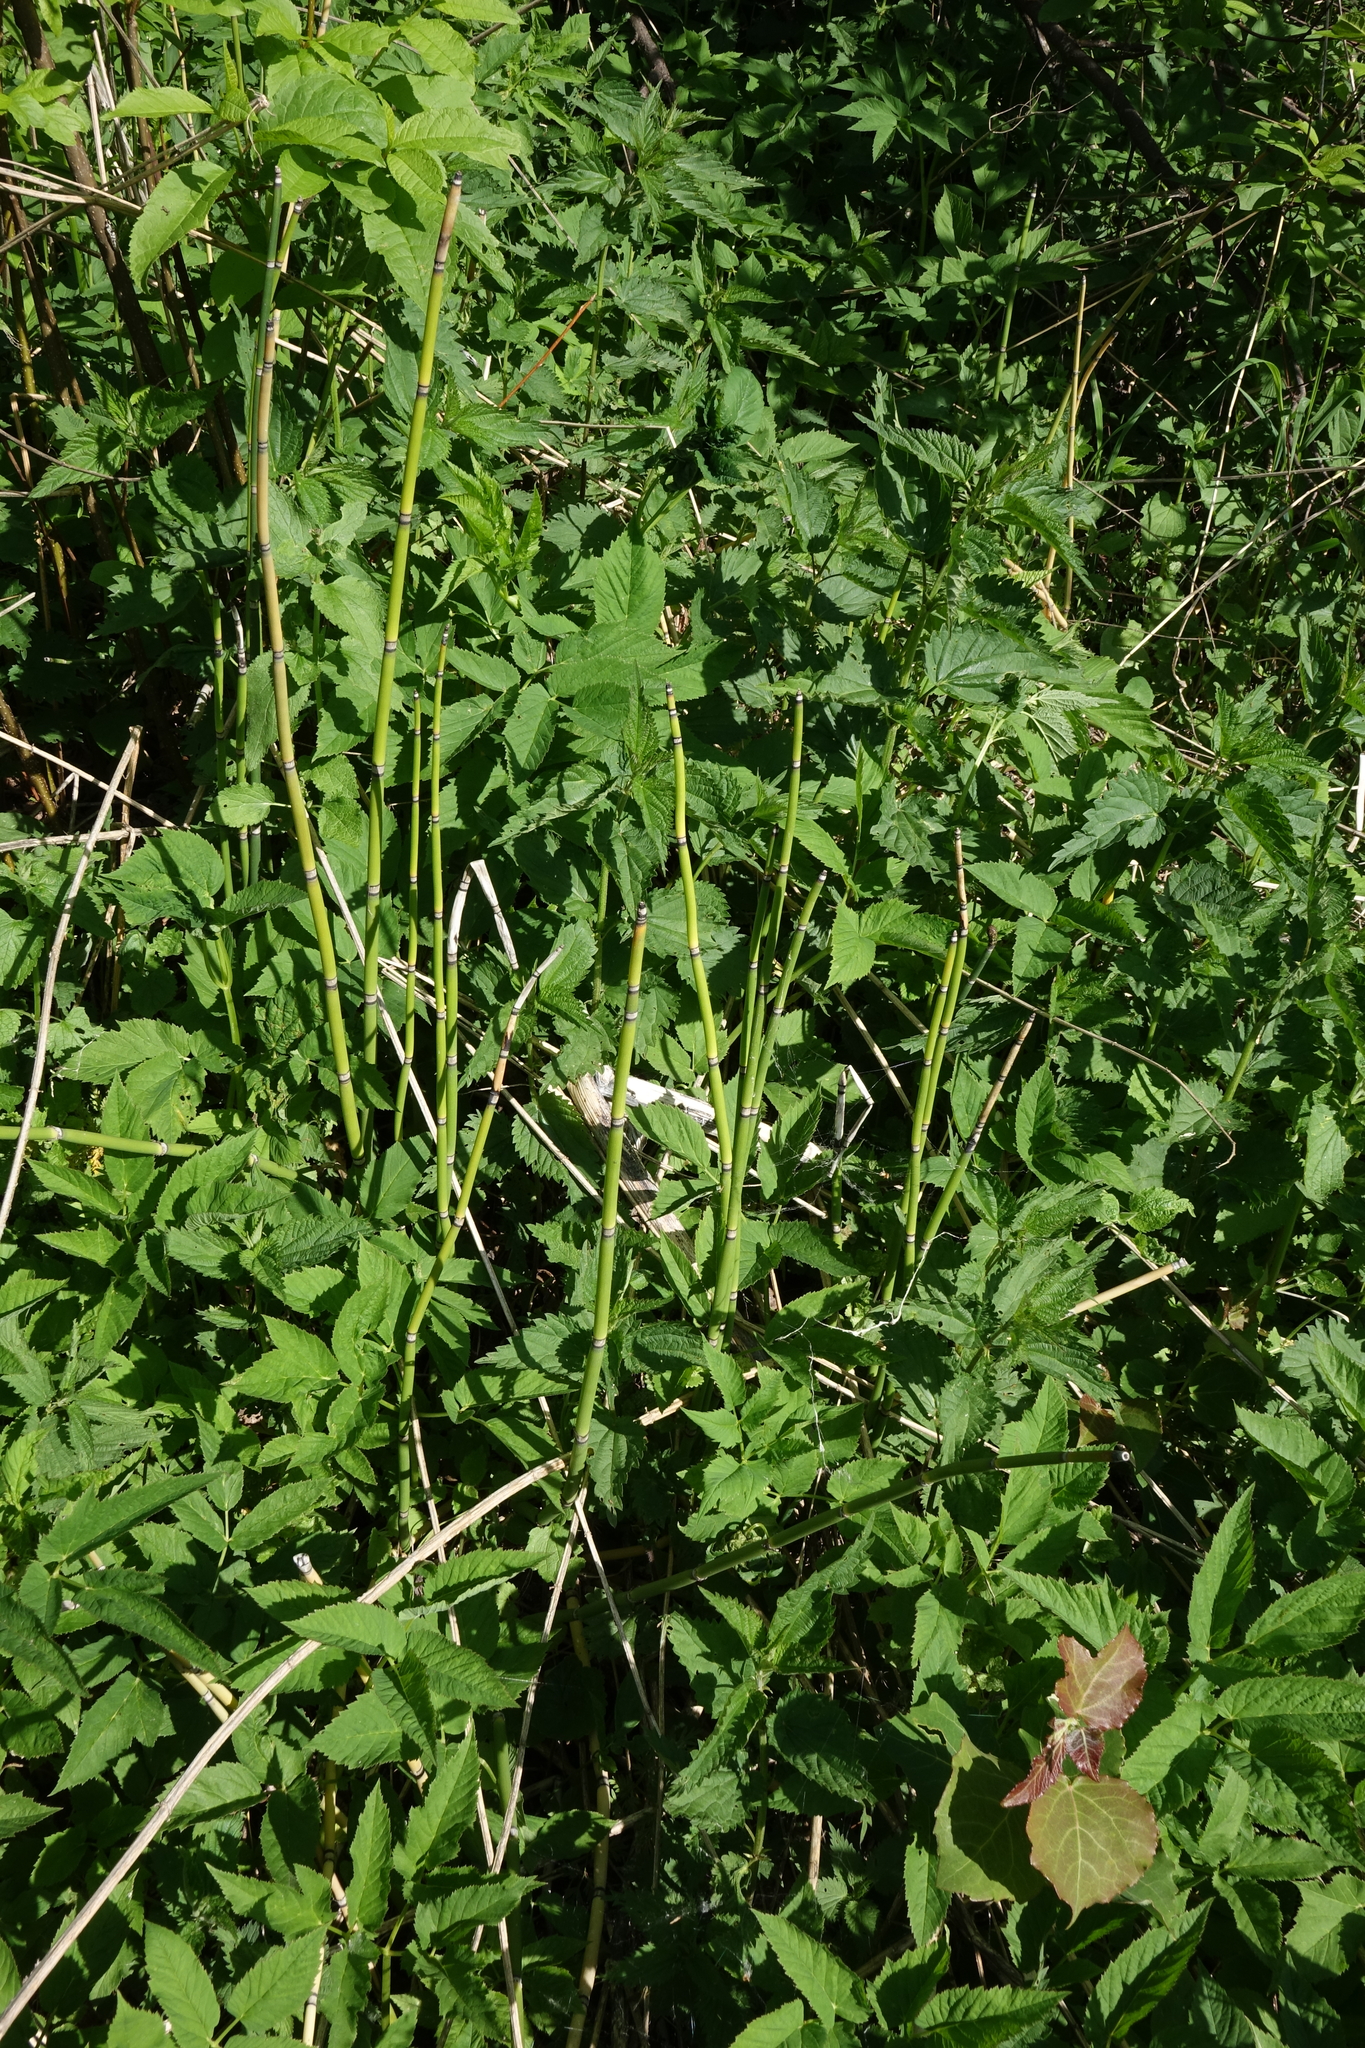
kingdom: Plantae
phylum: Tracheophyta
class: Polypodiopsida
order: Equisetales
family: Equisetaceae
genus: Equisetum
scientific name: Equisetum hyemale
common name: Rough horsetail
